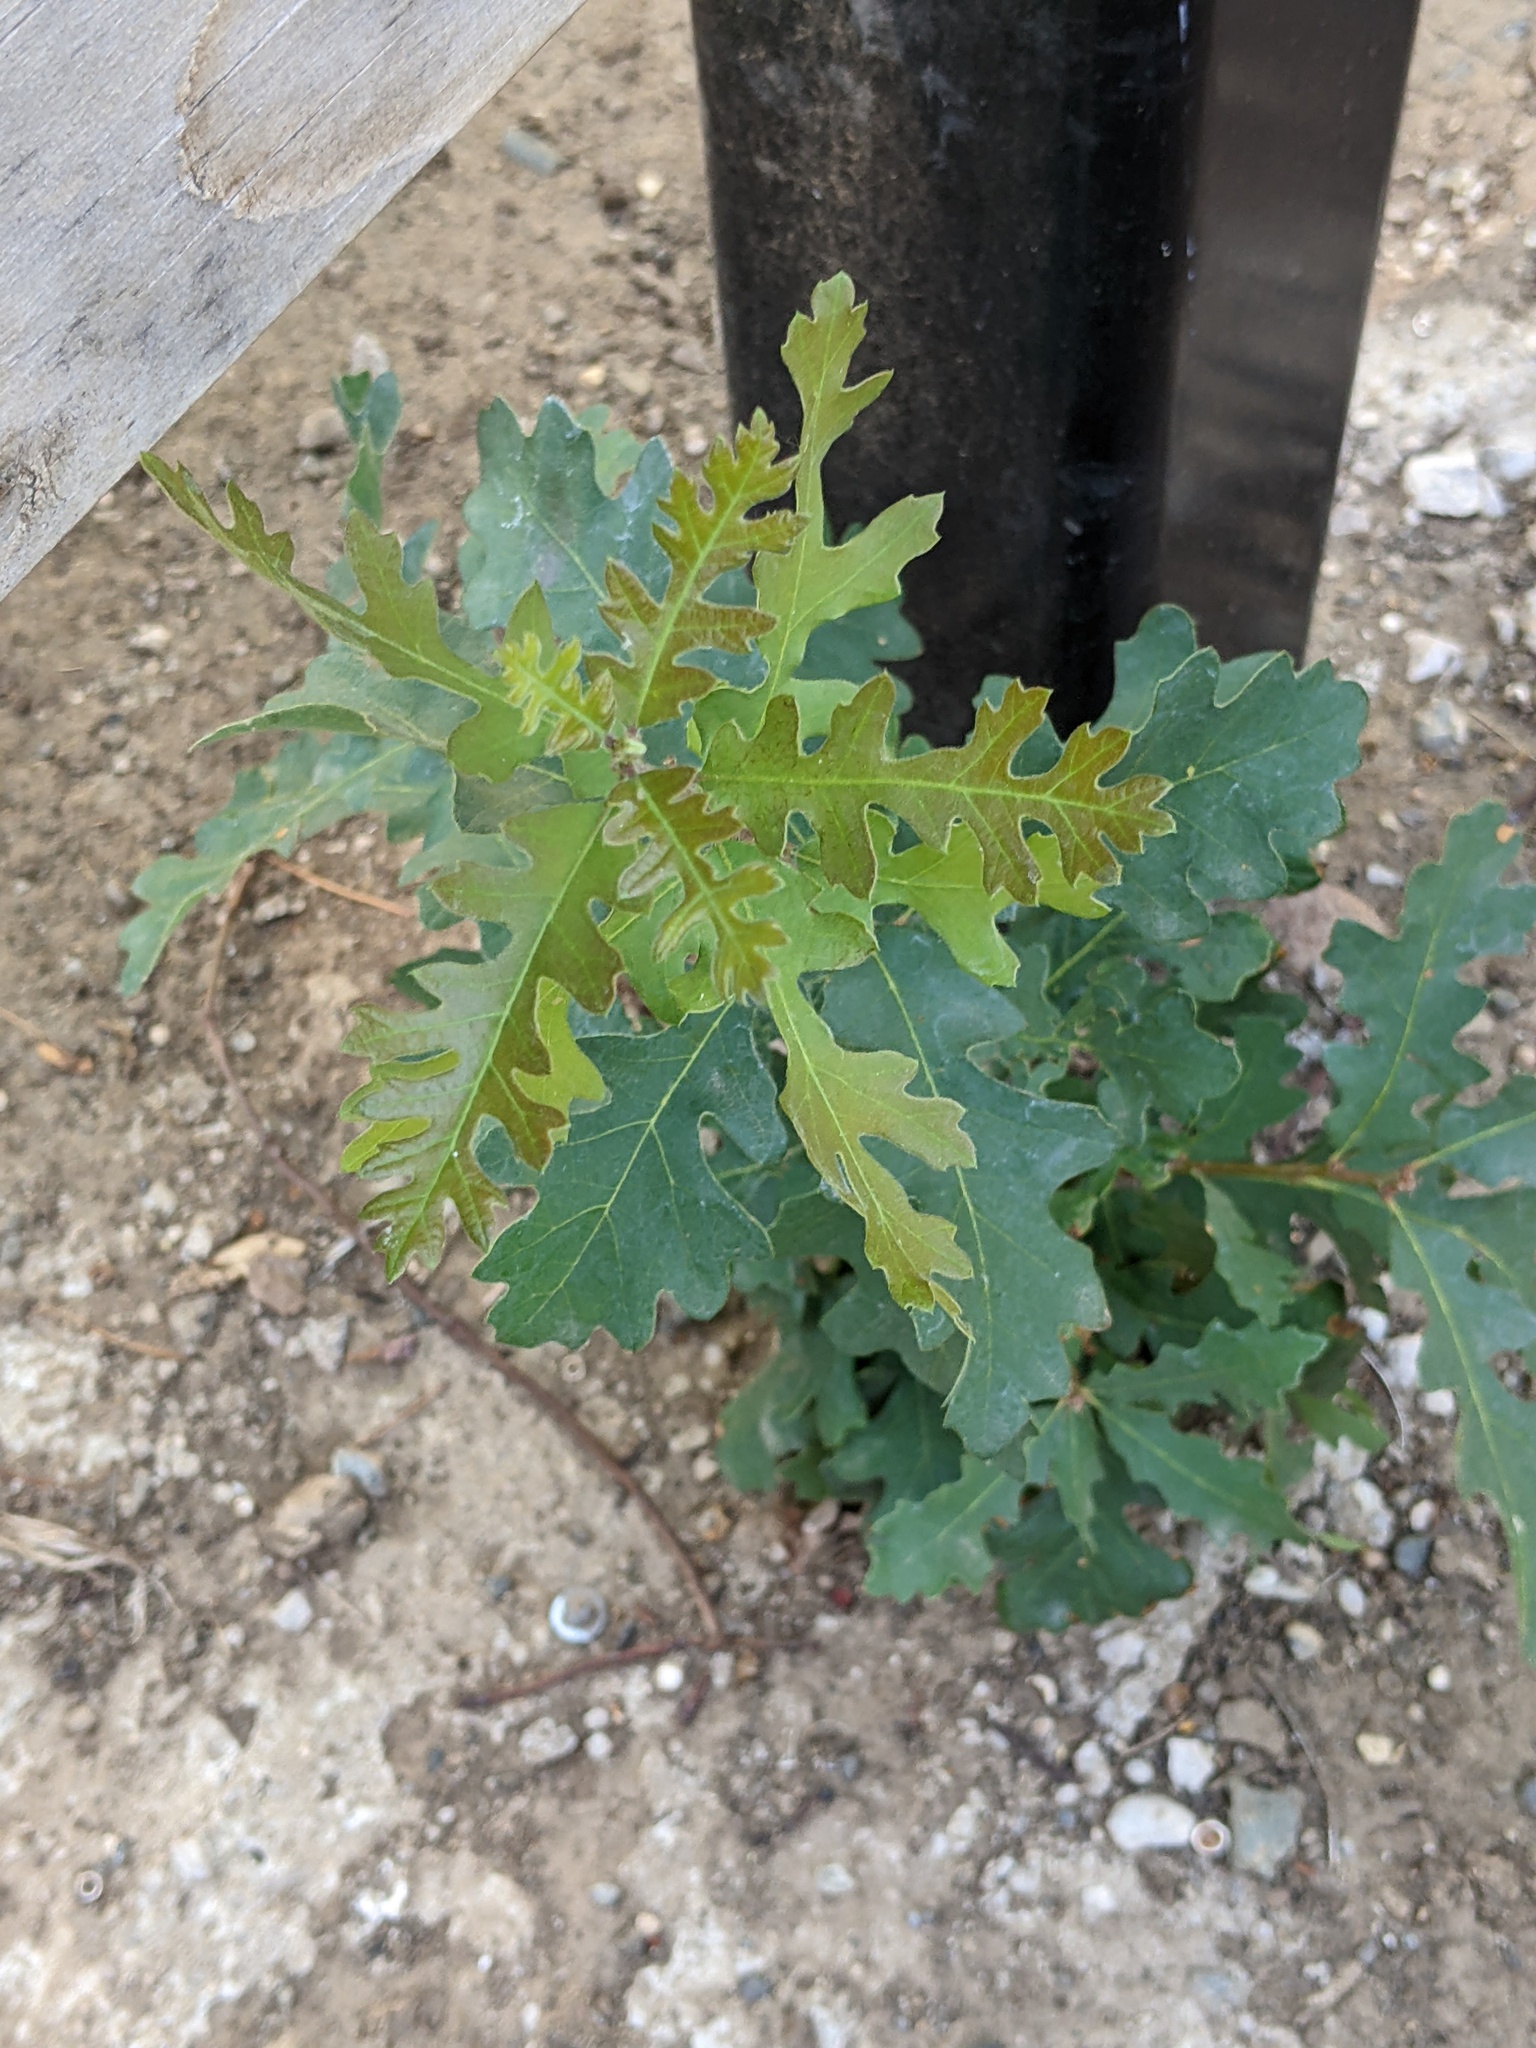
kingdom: Plantae
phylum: Tracheophyta
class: Magnoliopsida
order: Fagales
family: Fagaceae
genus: Quercus
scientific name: Quercus lobata
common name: Valley oak
